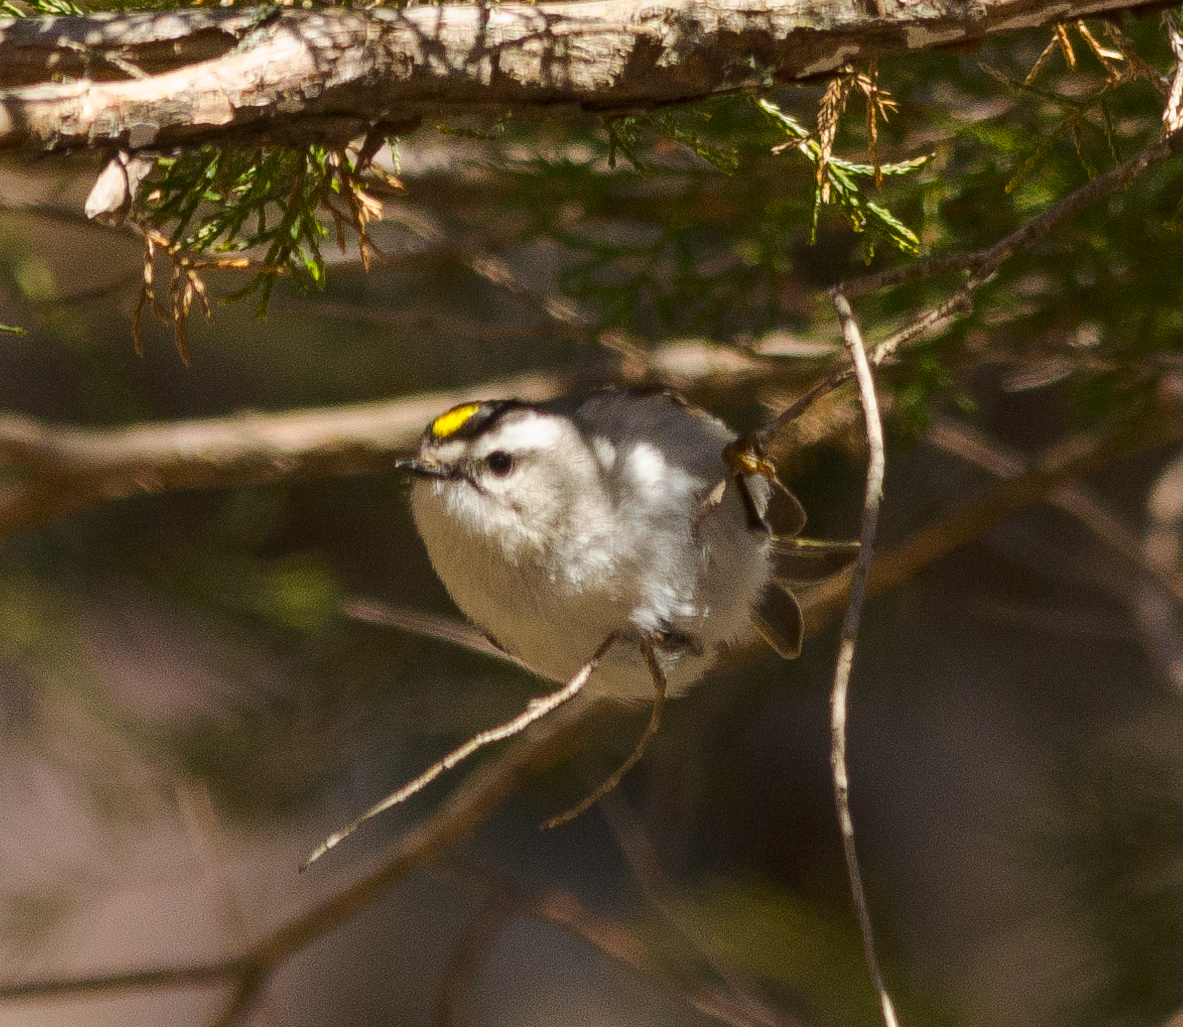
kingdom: Animalia
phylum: Chordata
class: Aves
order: Passeriformes
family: Regulidae
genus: Regulus
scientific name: Regulus satrapa
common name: Golden-crowned kinglet
